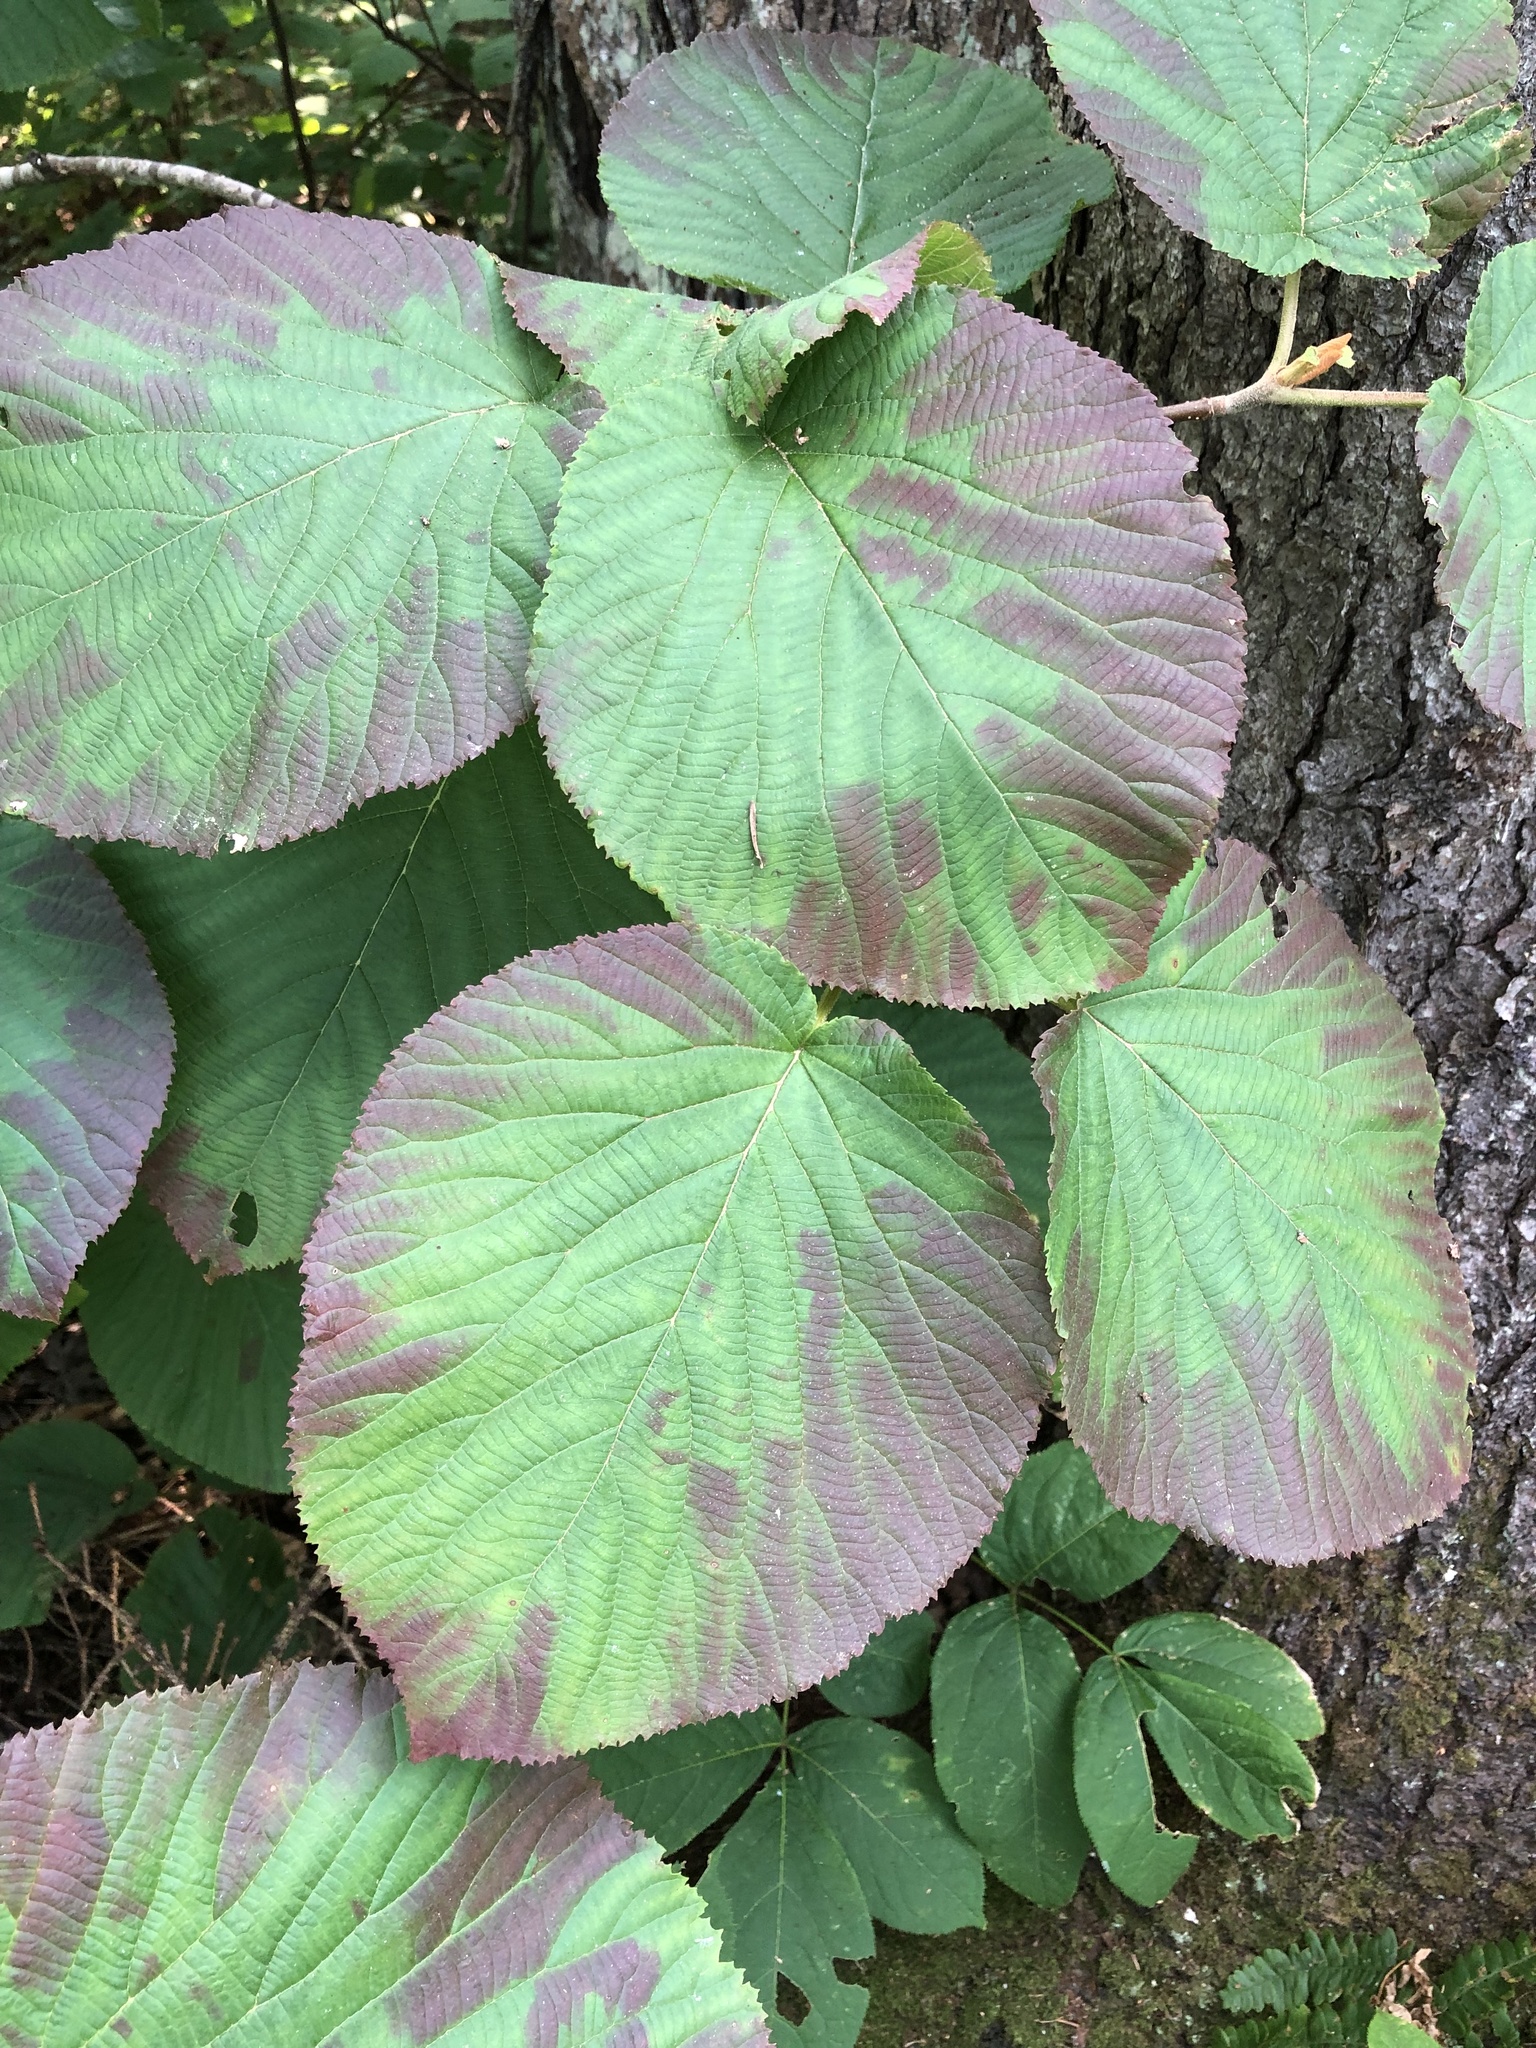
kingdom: Plantae
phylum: Tracheophyta
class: Magnoliopsida
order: Dipsacales
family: Viburnaceae
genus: Viburnum
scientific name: Viburnum lantanoides
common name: Hobblebush
